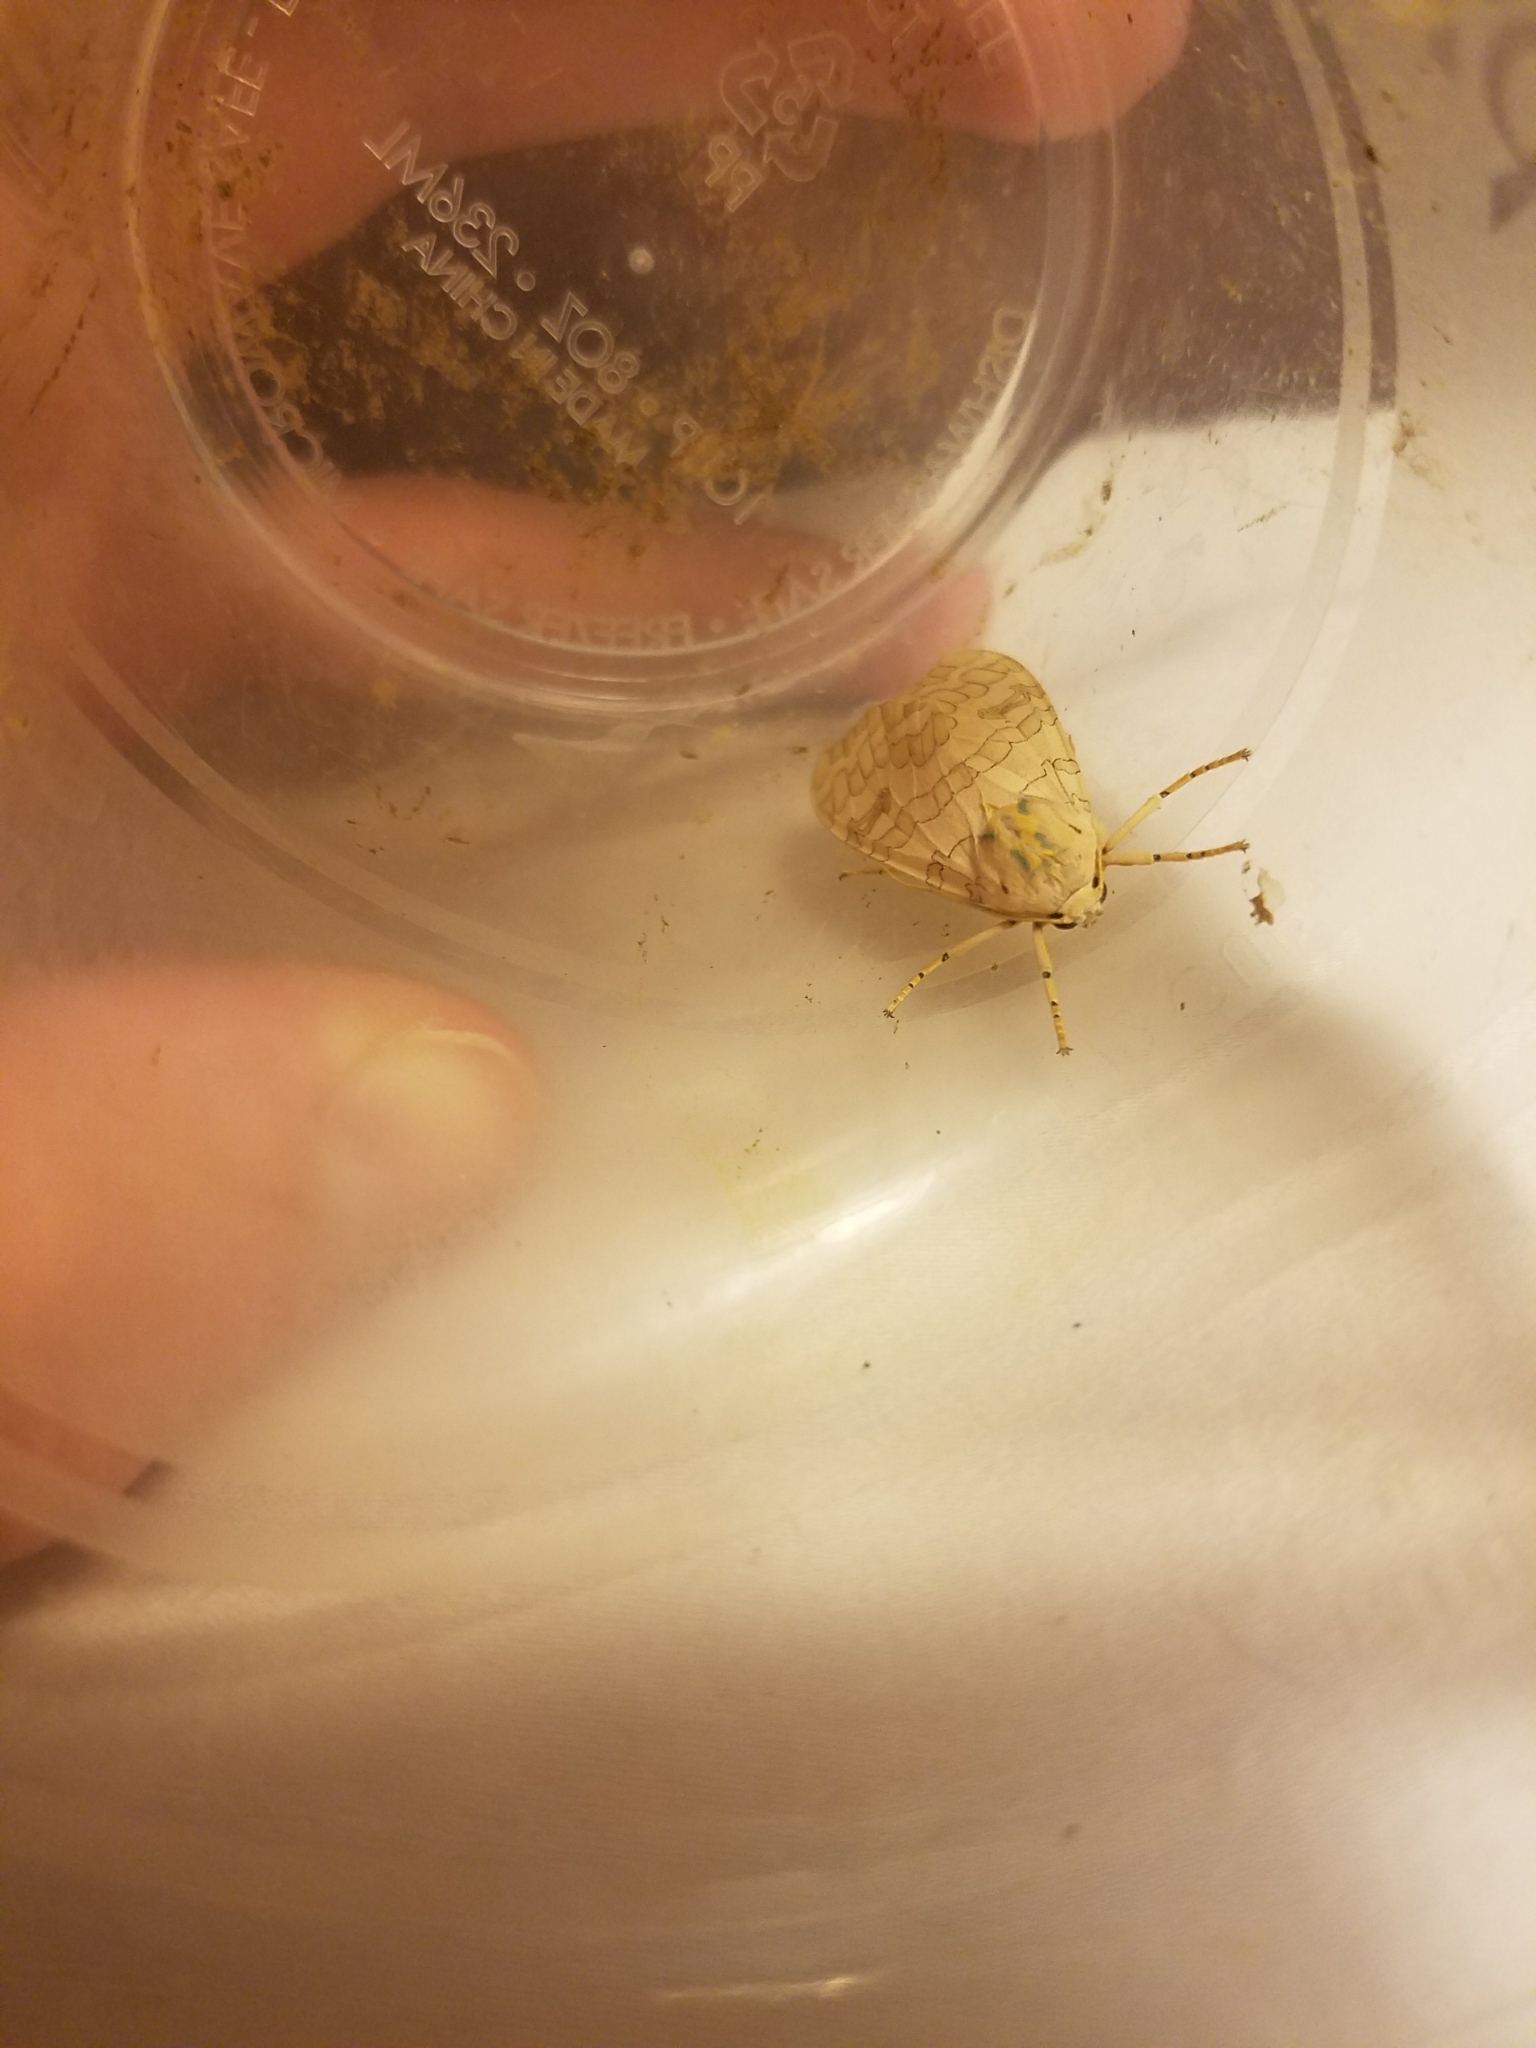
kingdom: Animalia
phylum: Arthropoda
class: Insecta
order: Lepidoptera
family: Erebidae
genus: Halysidota
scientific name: Halysidota
